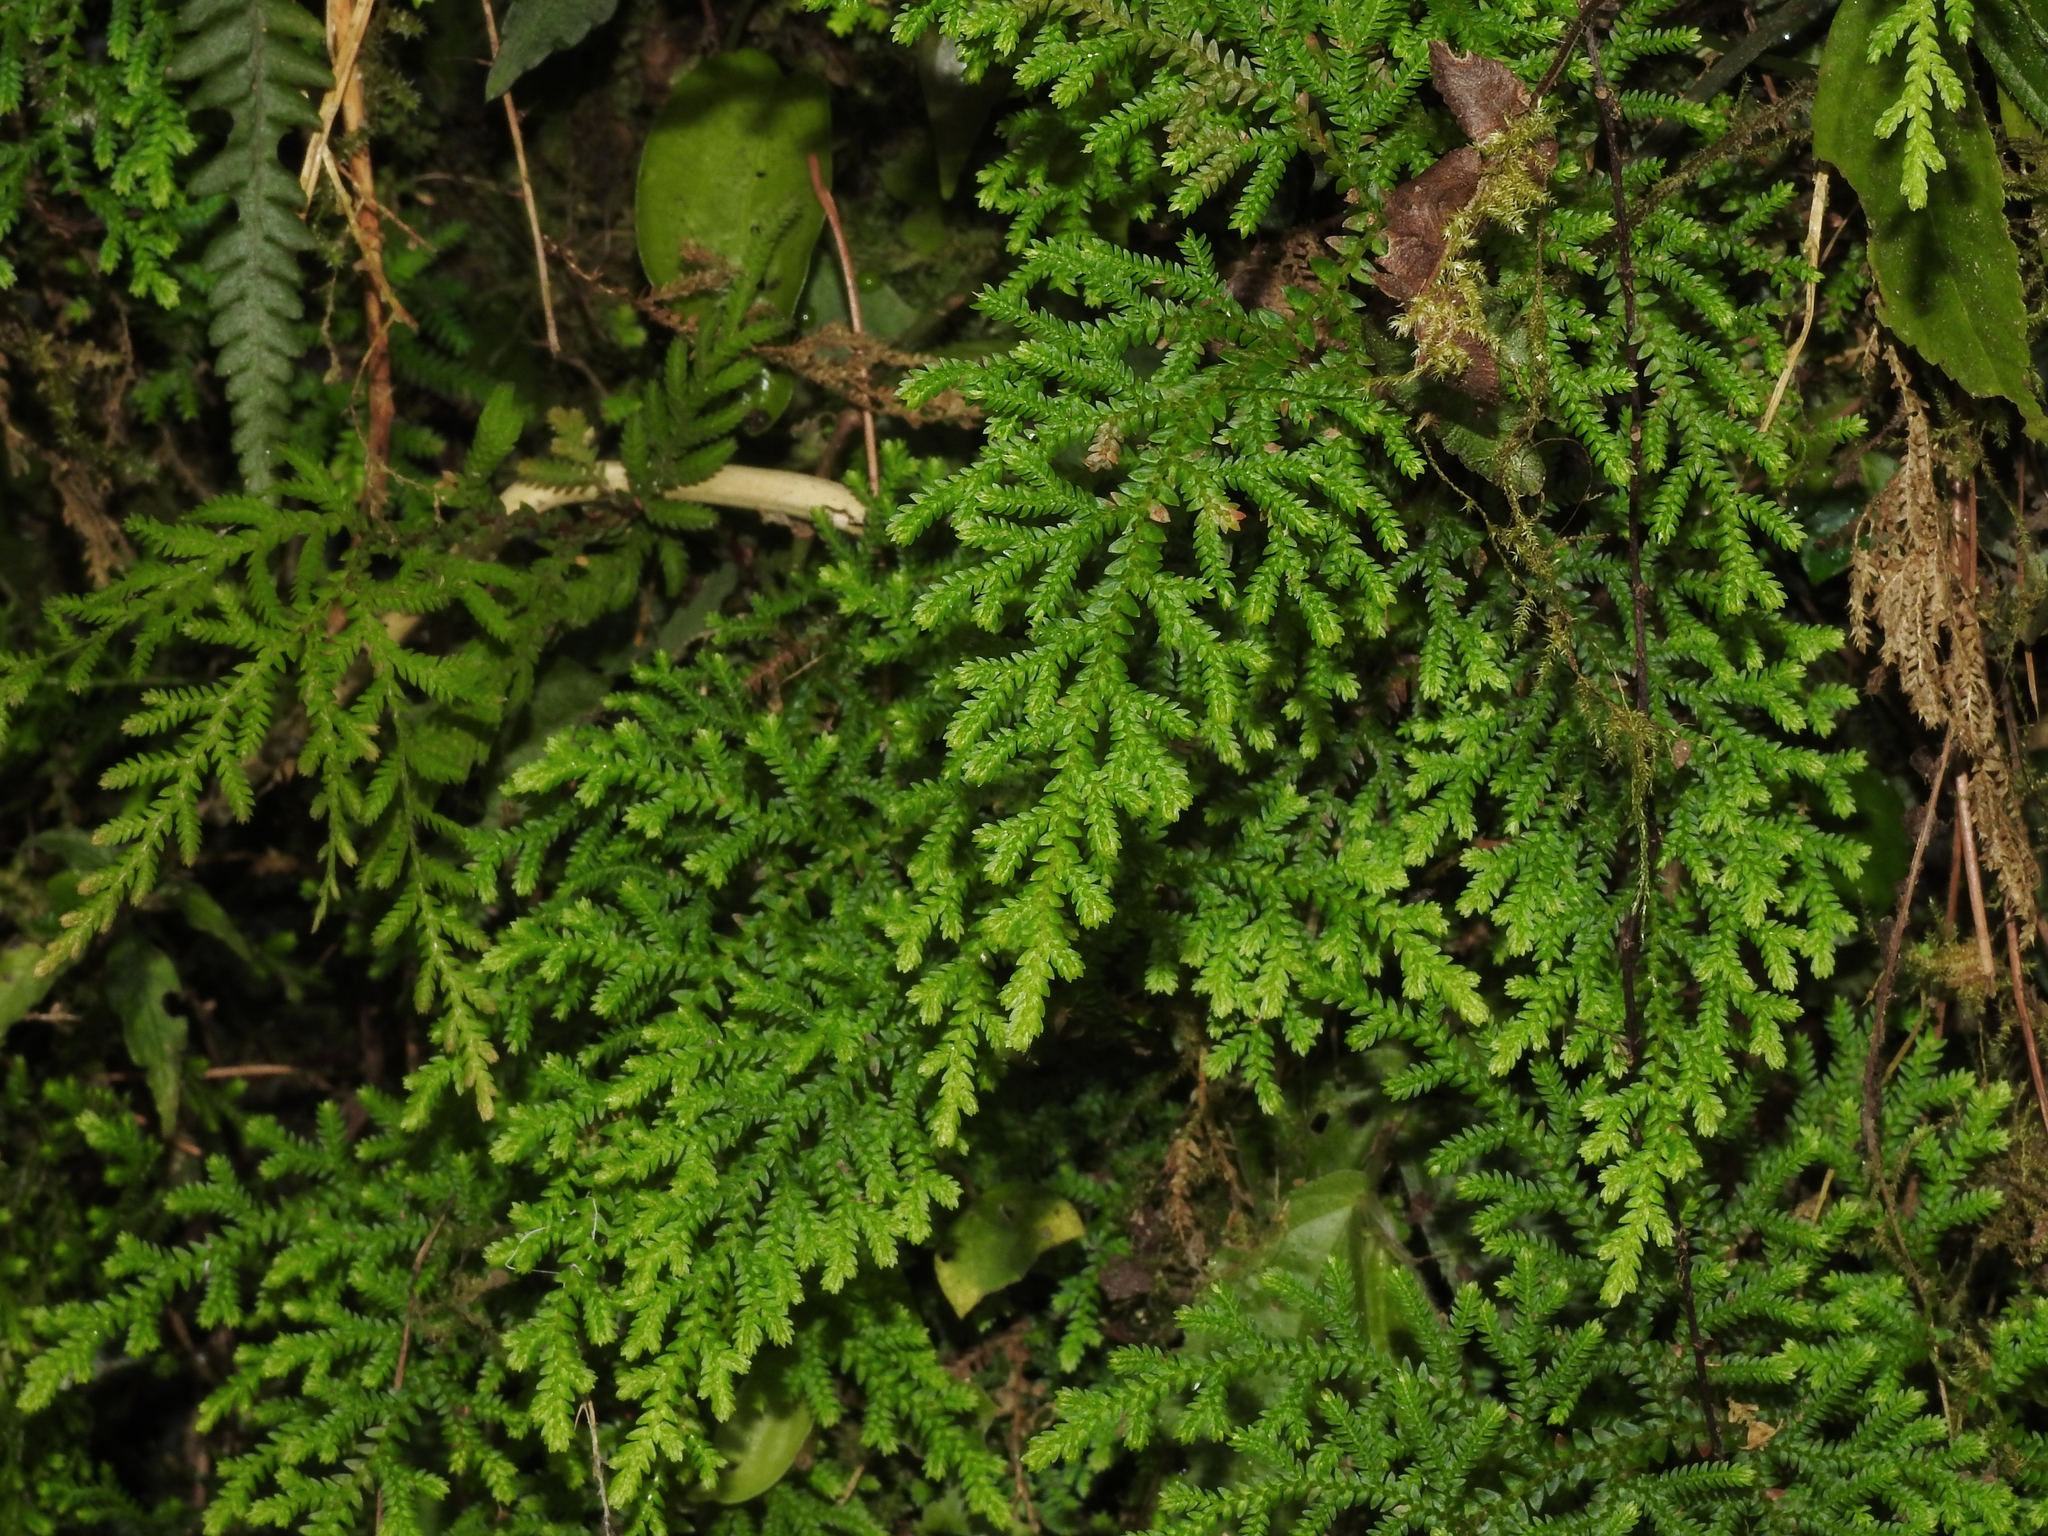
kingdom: Plantae
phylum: Tracheophyta
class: Lycopodiopsida
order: Selaginellales
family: Selaginellaceae
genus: Selaginella
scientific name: Selaginella labordei
